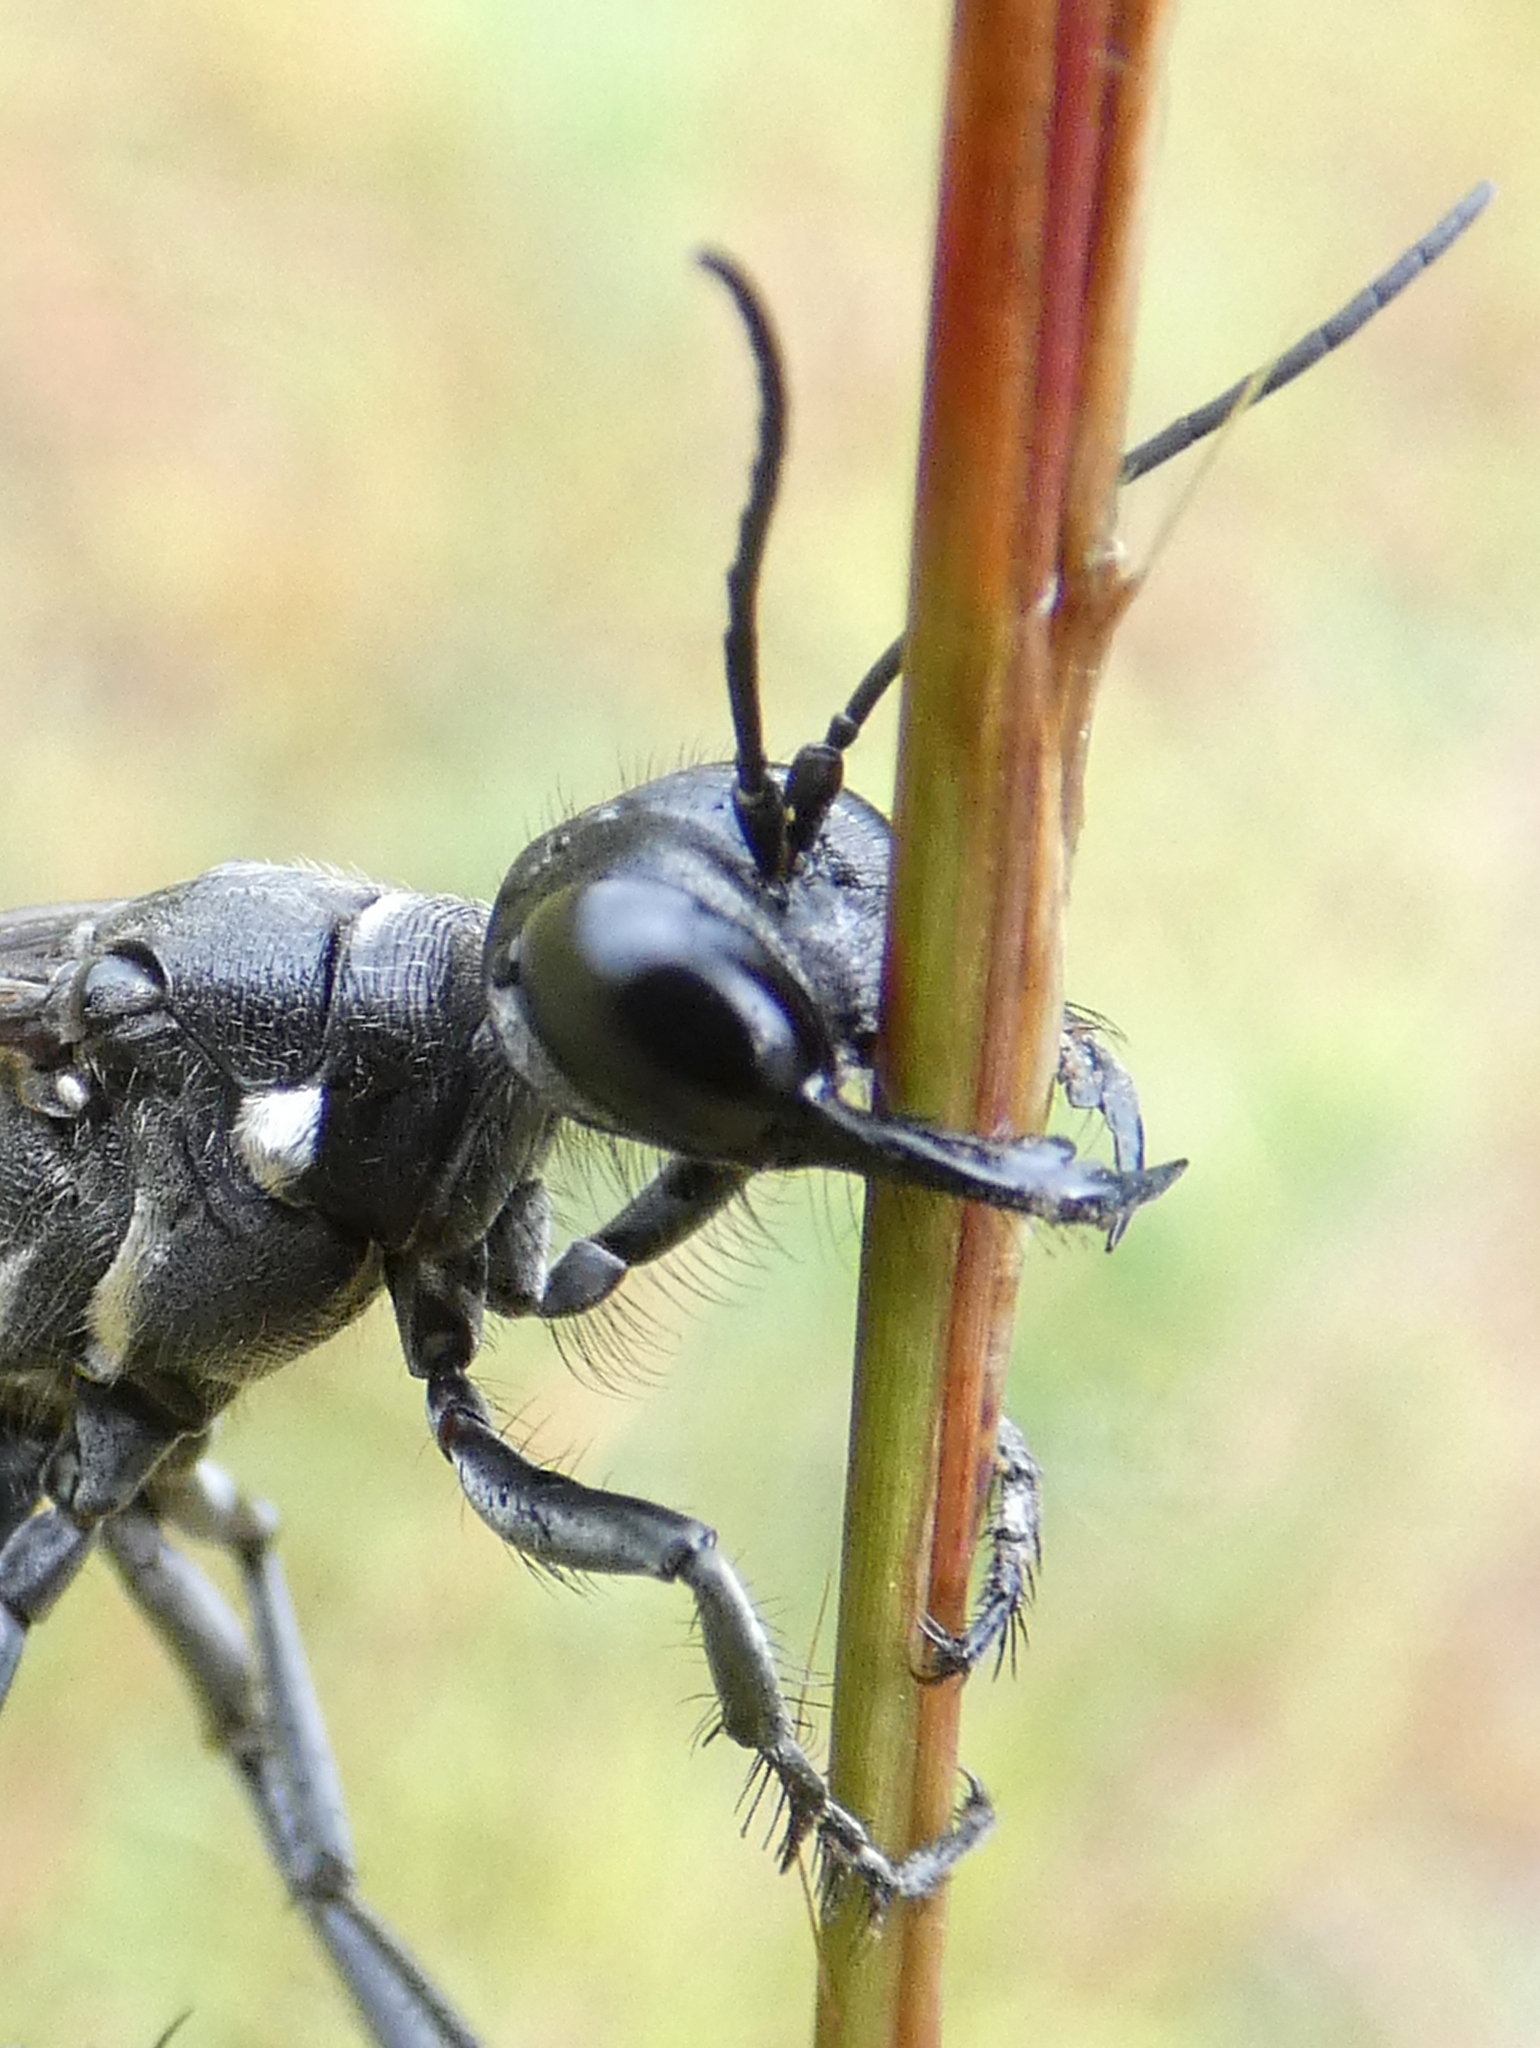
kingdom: Animalia
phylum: Arthropoda
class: Insecta
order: Hymenoptera
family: Sphecidae
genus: Ammophila
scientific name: Ammophila procera
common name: Common thread-waisted wasp
